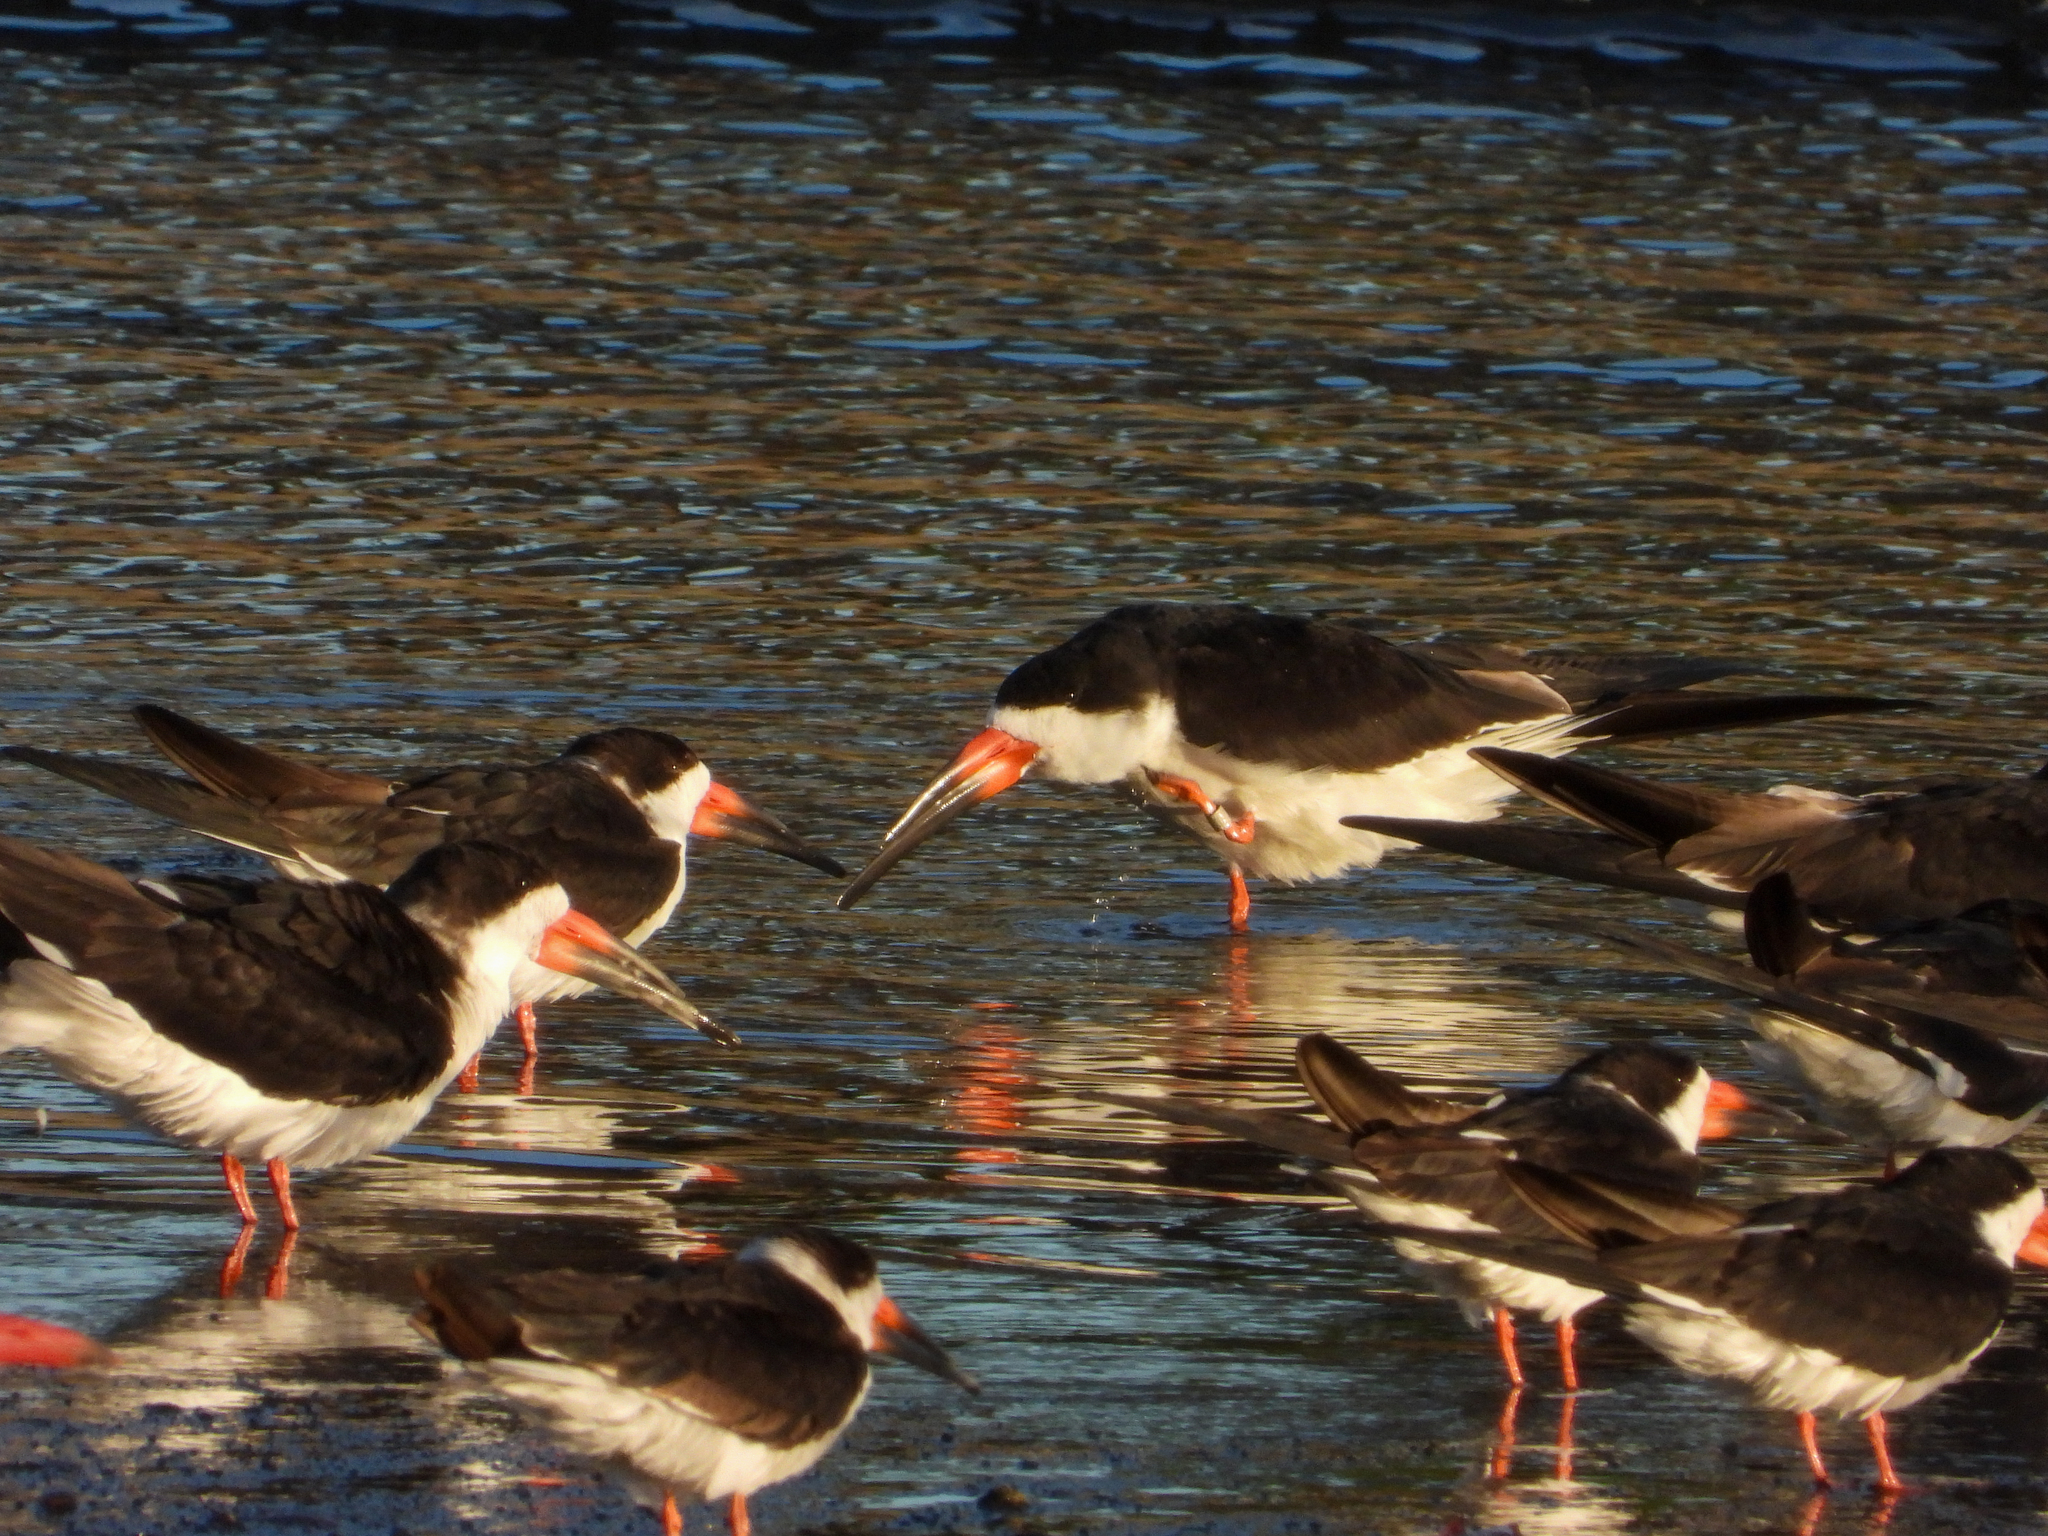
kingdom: Animalia
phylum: Chordata
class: Aves
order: Charadriiformes
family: Laridae
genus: Rynchops
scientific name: Rynchops niger
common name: Black skimmer
